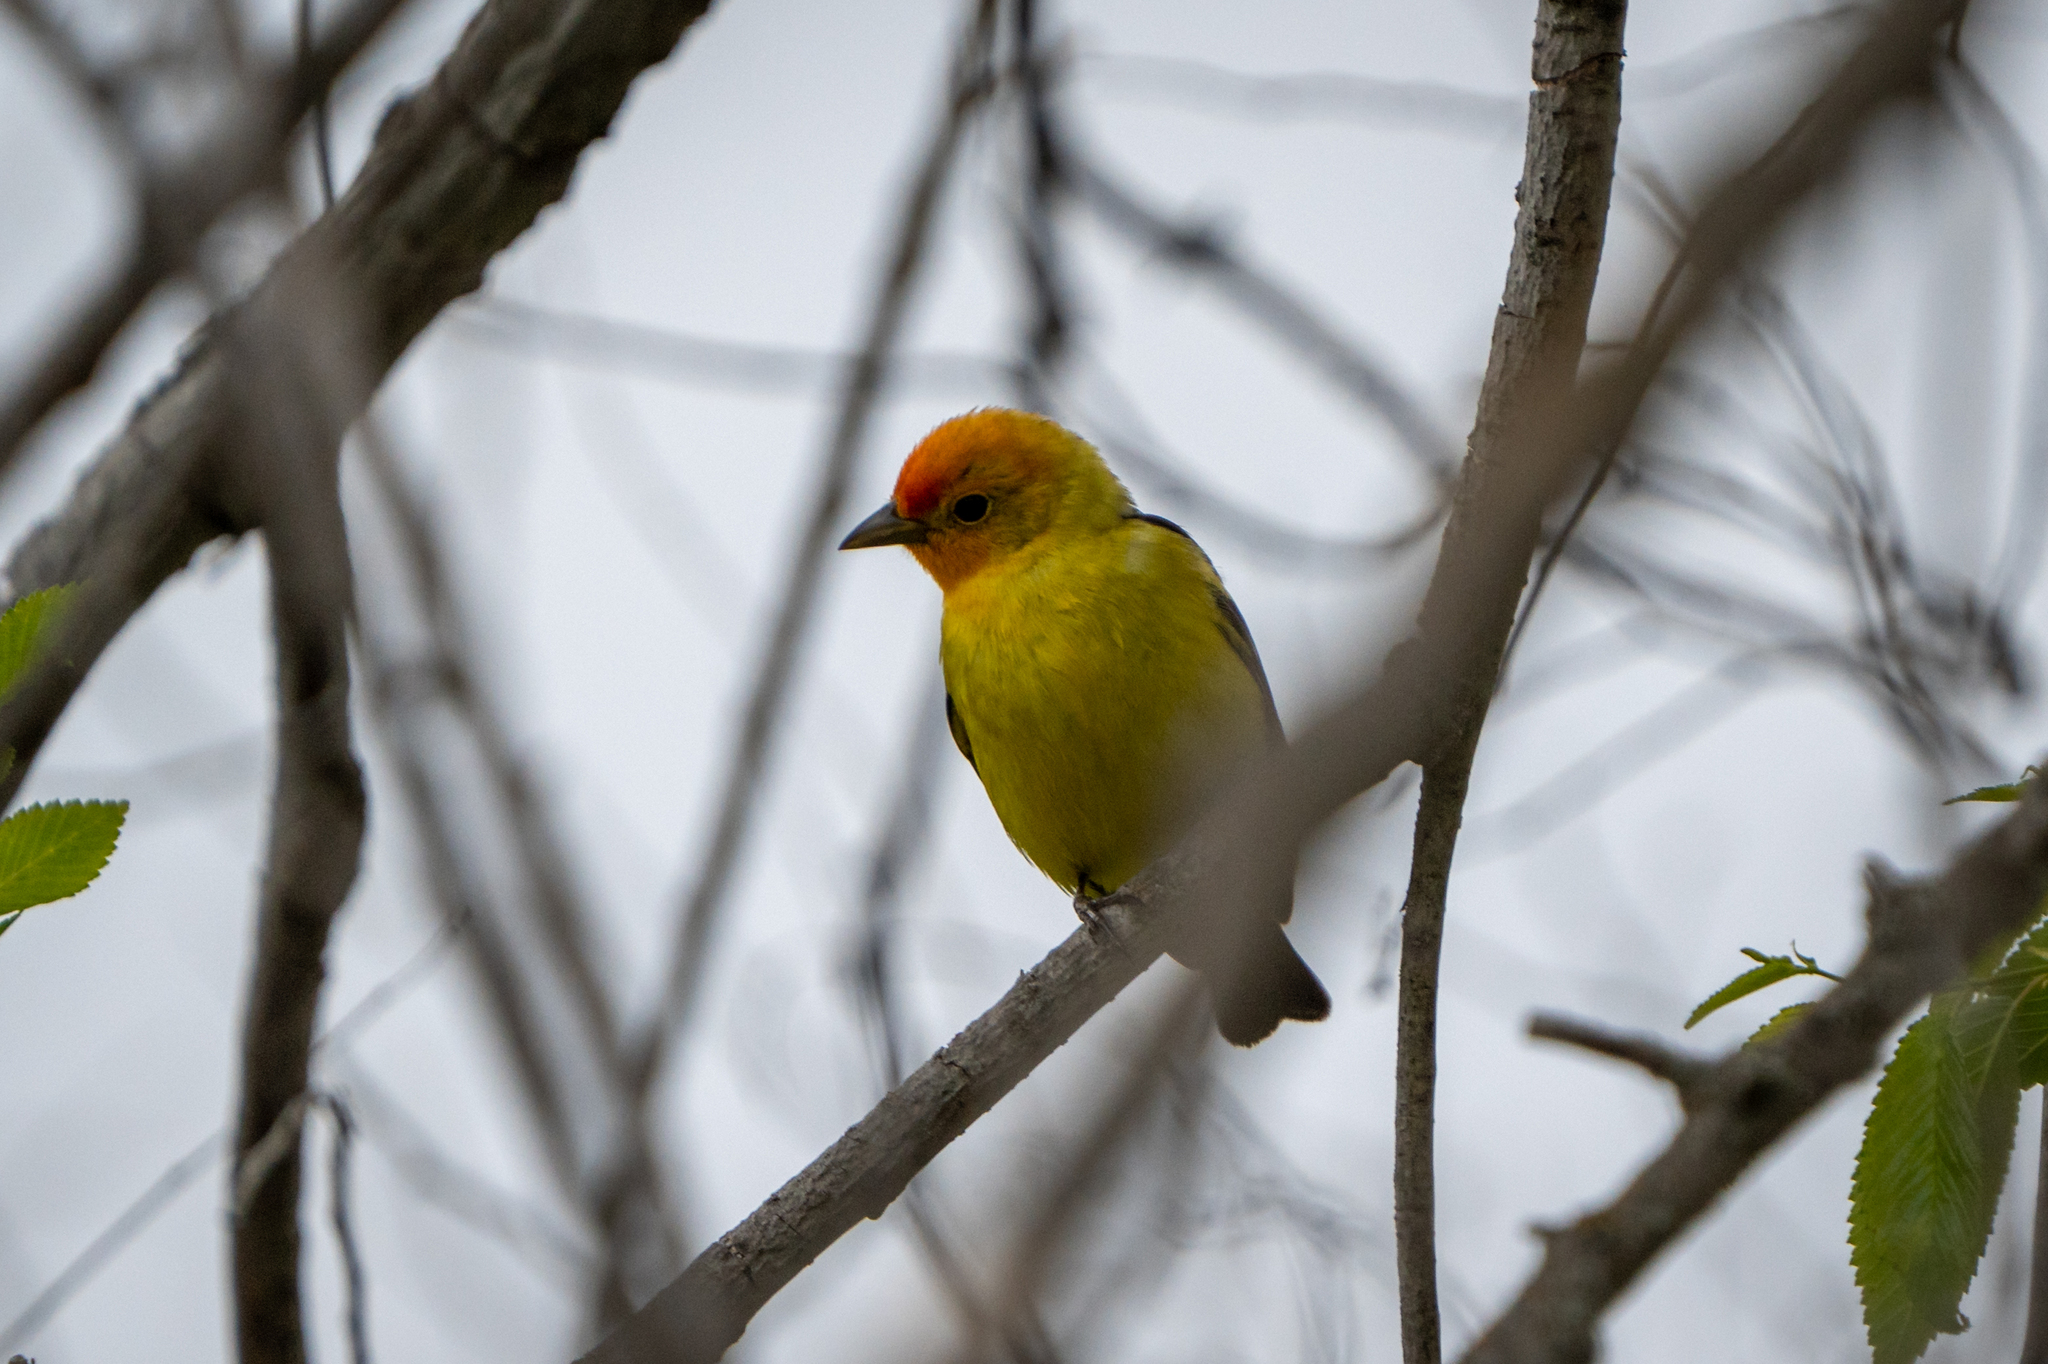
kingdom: Animalia
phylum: Chordata
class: Aves
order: Passeriformes
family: Cardinalidae
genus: Piranga
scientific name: Piranga ludoviciana
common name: Western tanager
